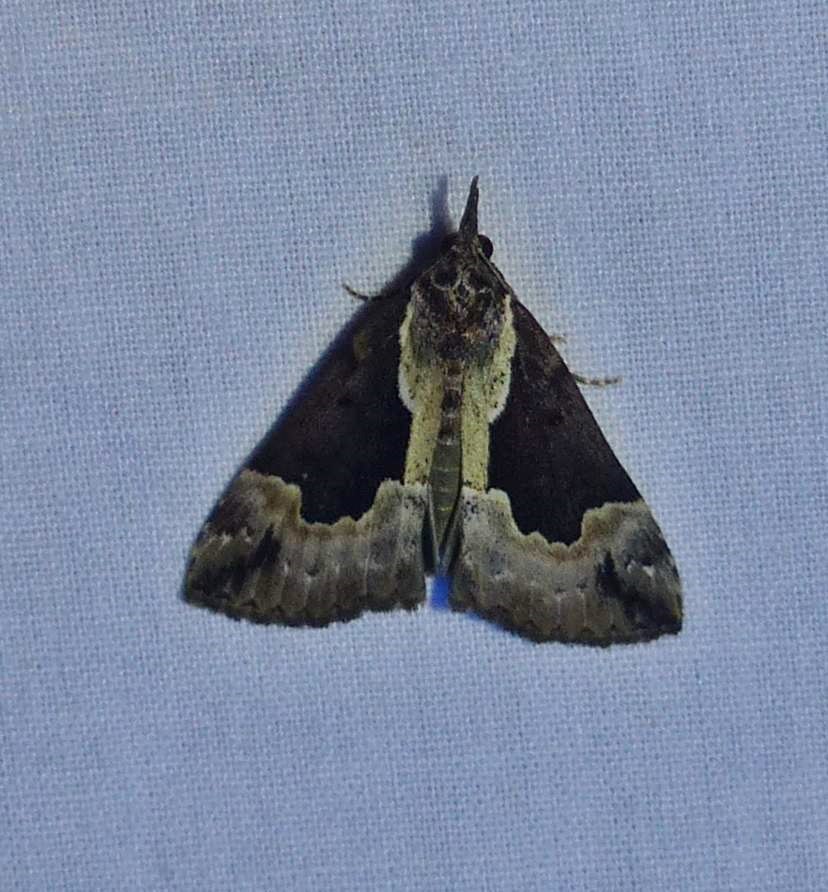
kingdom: Animalia
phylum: Arthropoda
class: Insecta
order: Lepidoptera
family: Erebidae
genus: Hypena
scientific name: Hypena baltimoralis
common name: Baltimore snout
